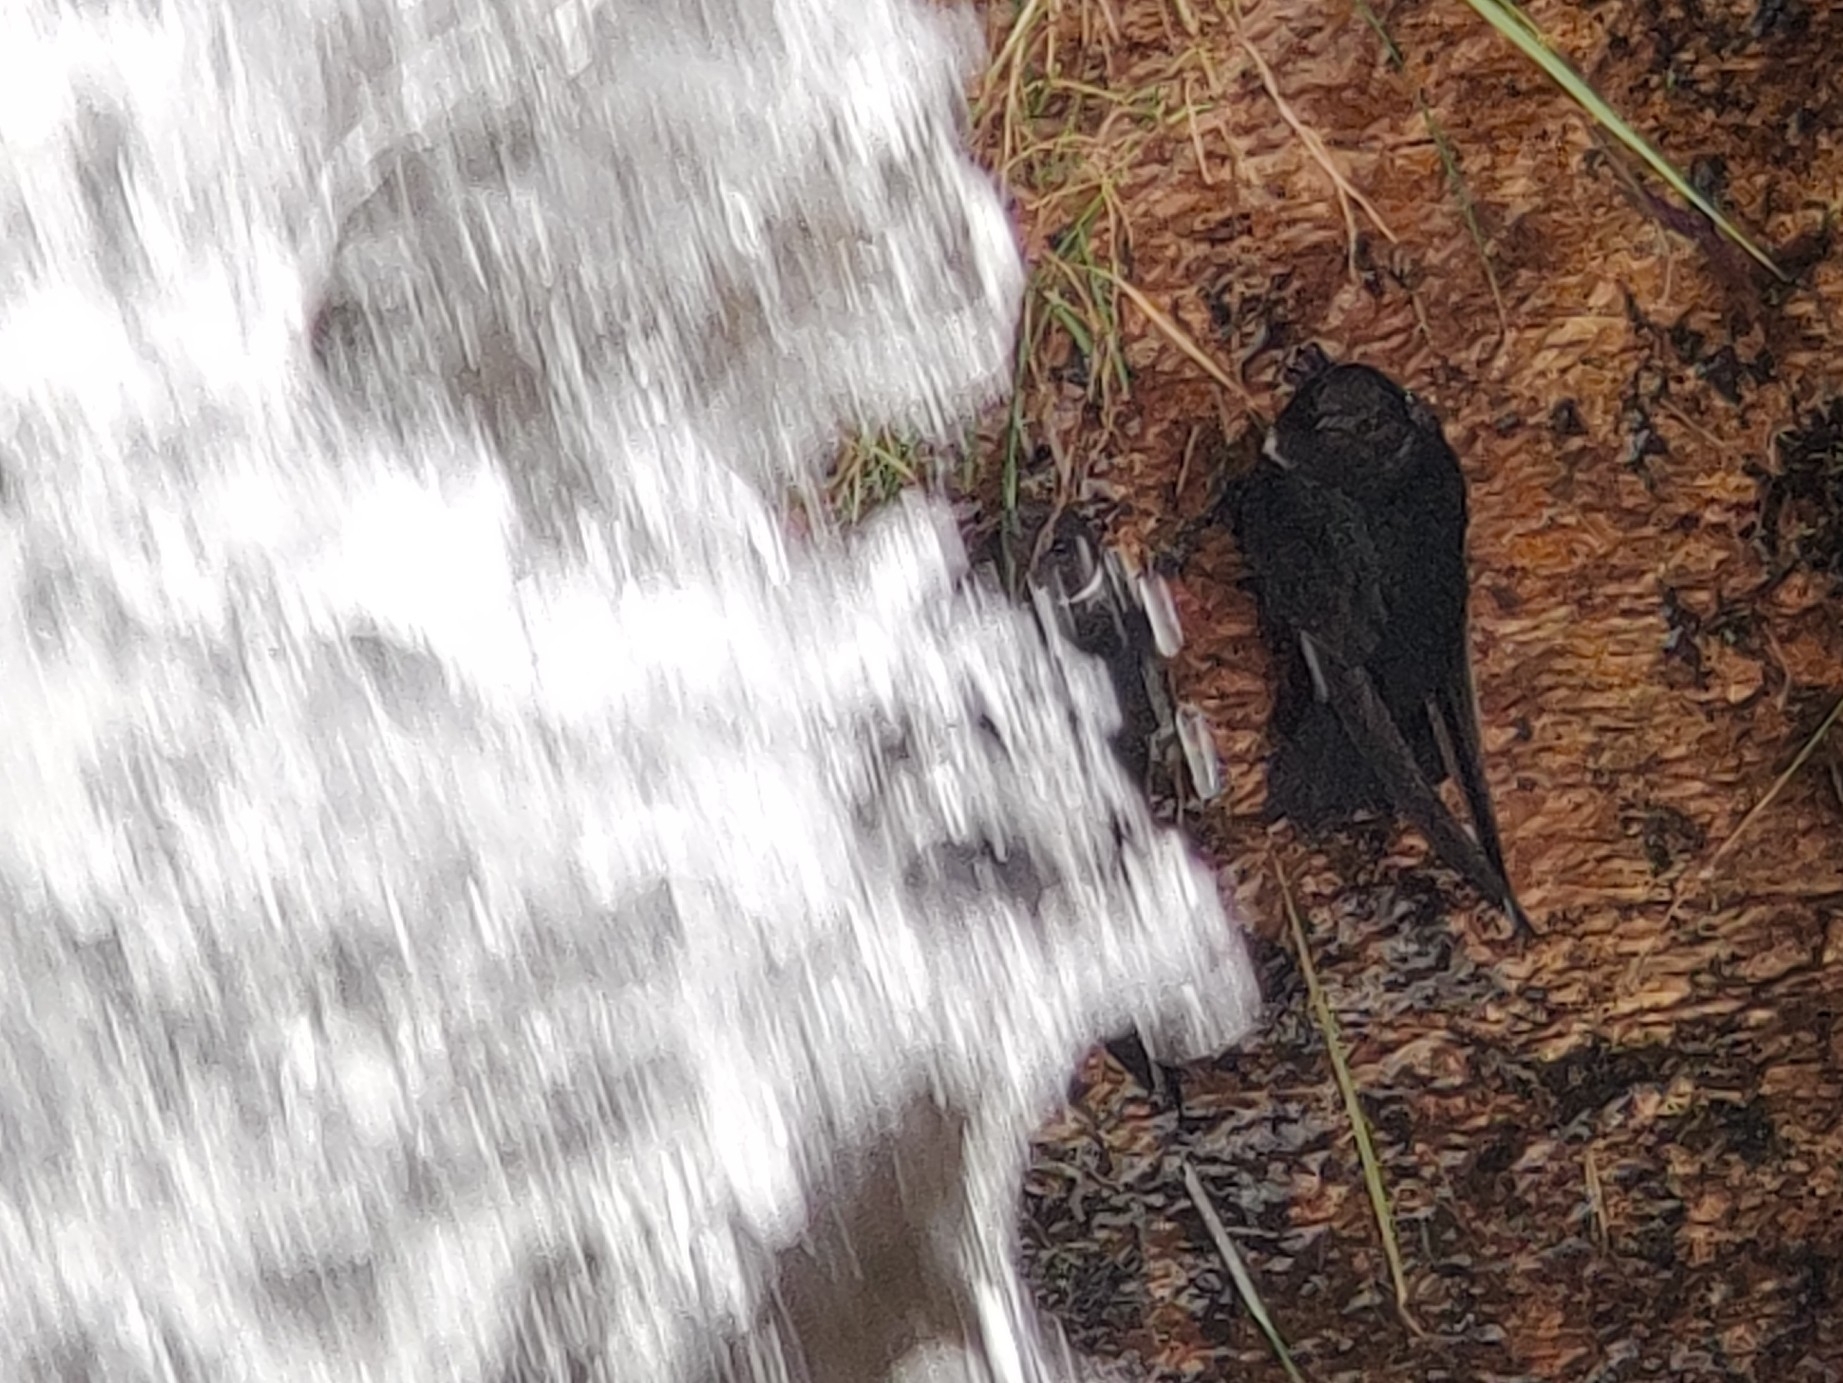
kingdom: Animalia
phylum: Chordata
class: Aves
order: Apodiformes
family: Apodidae
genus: Streptoprocne
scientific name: Streptoprocne zonaris
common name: White-collared swift
